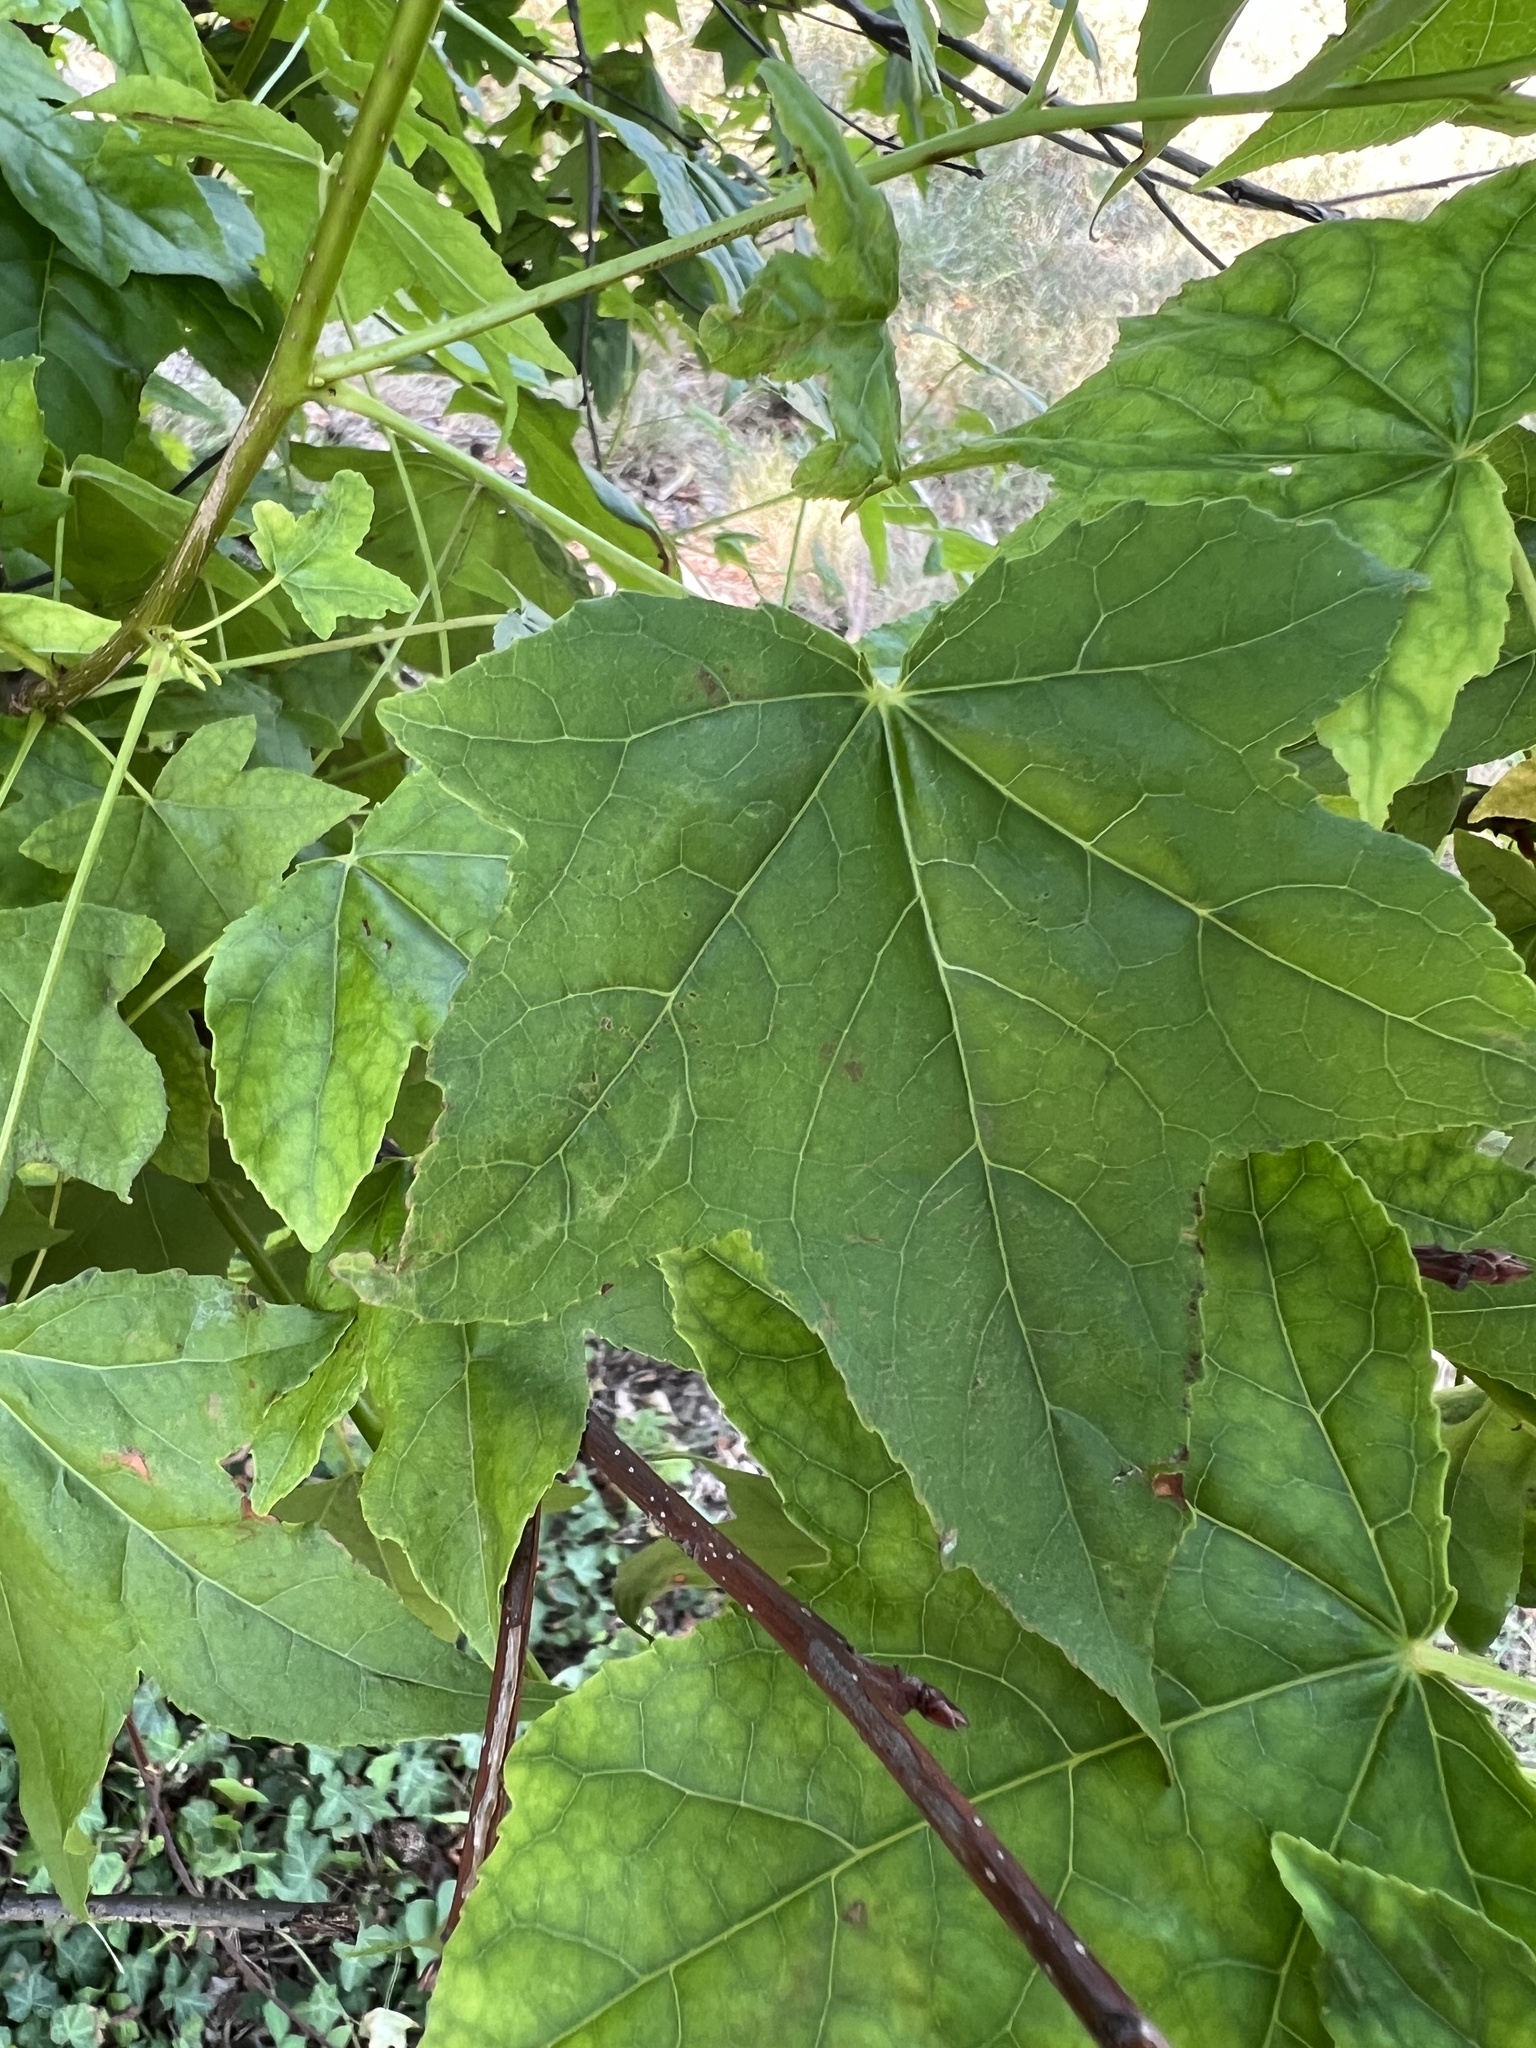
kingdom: Plantae
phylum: Tracheophyta
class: Magnoliopsida
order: Saxifragales
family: Altingiaceae
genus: Liquidambar
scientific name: Liquidambar styraciflua
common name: Sweet gum
